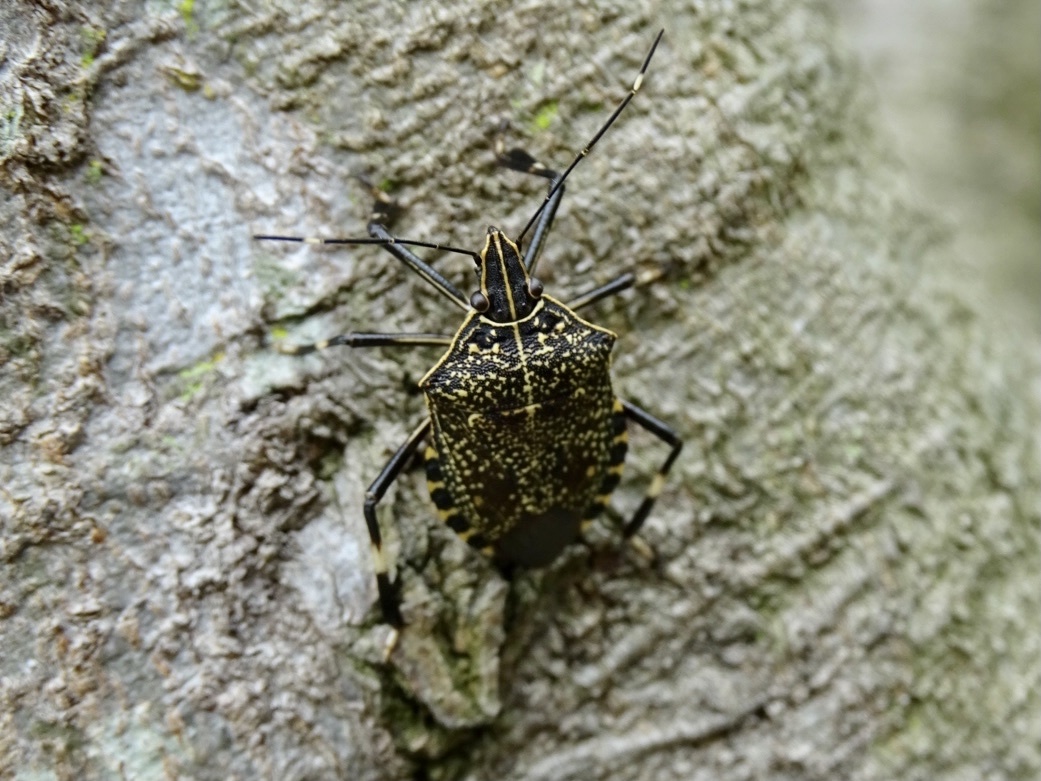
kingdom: Animalia
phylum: Arthropoda
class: Insecta
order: Hemiptera
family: Pentatomidae
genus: Erthesina
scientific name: Erthesina fullo
